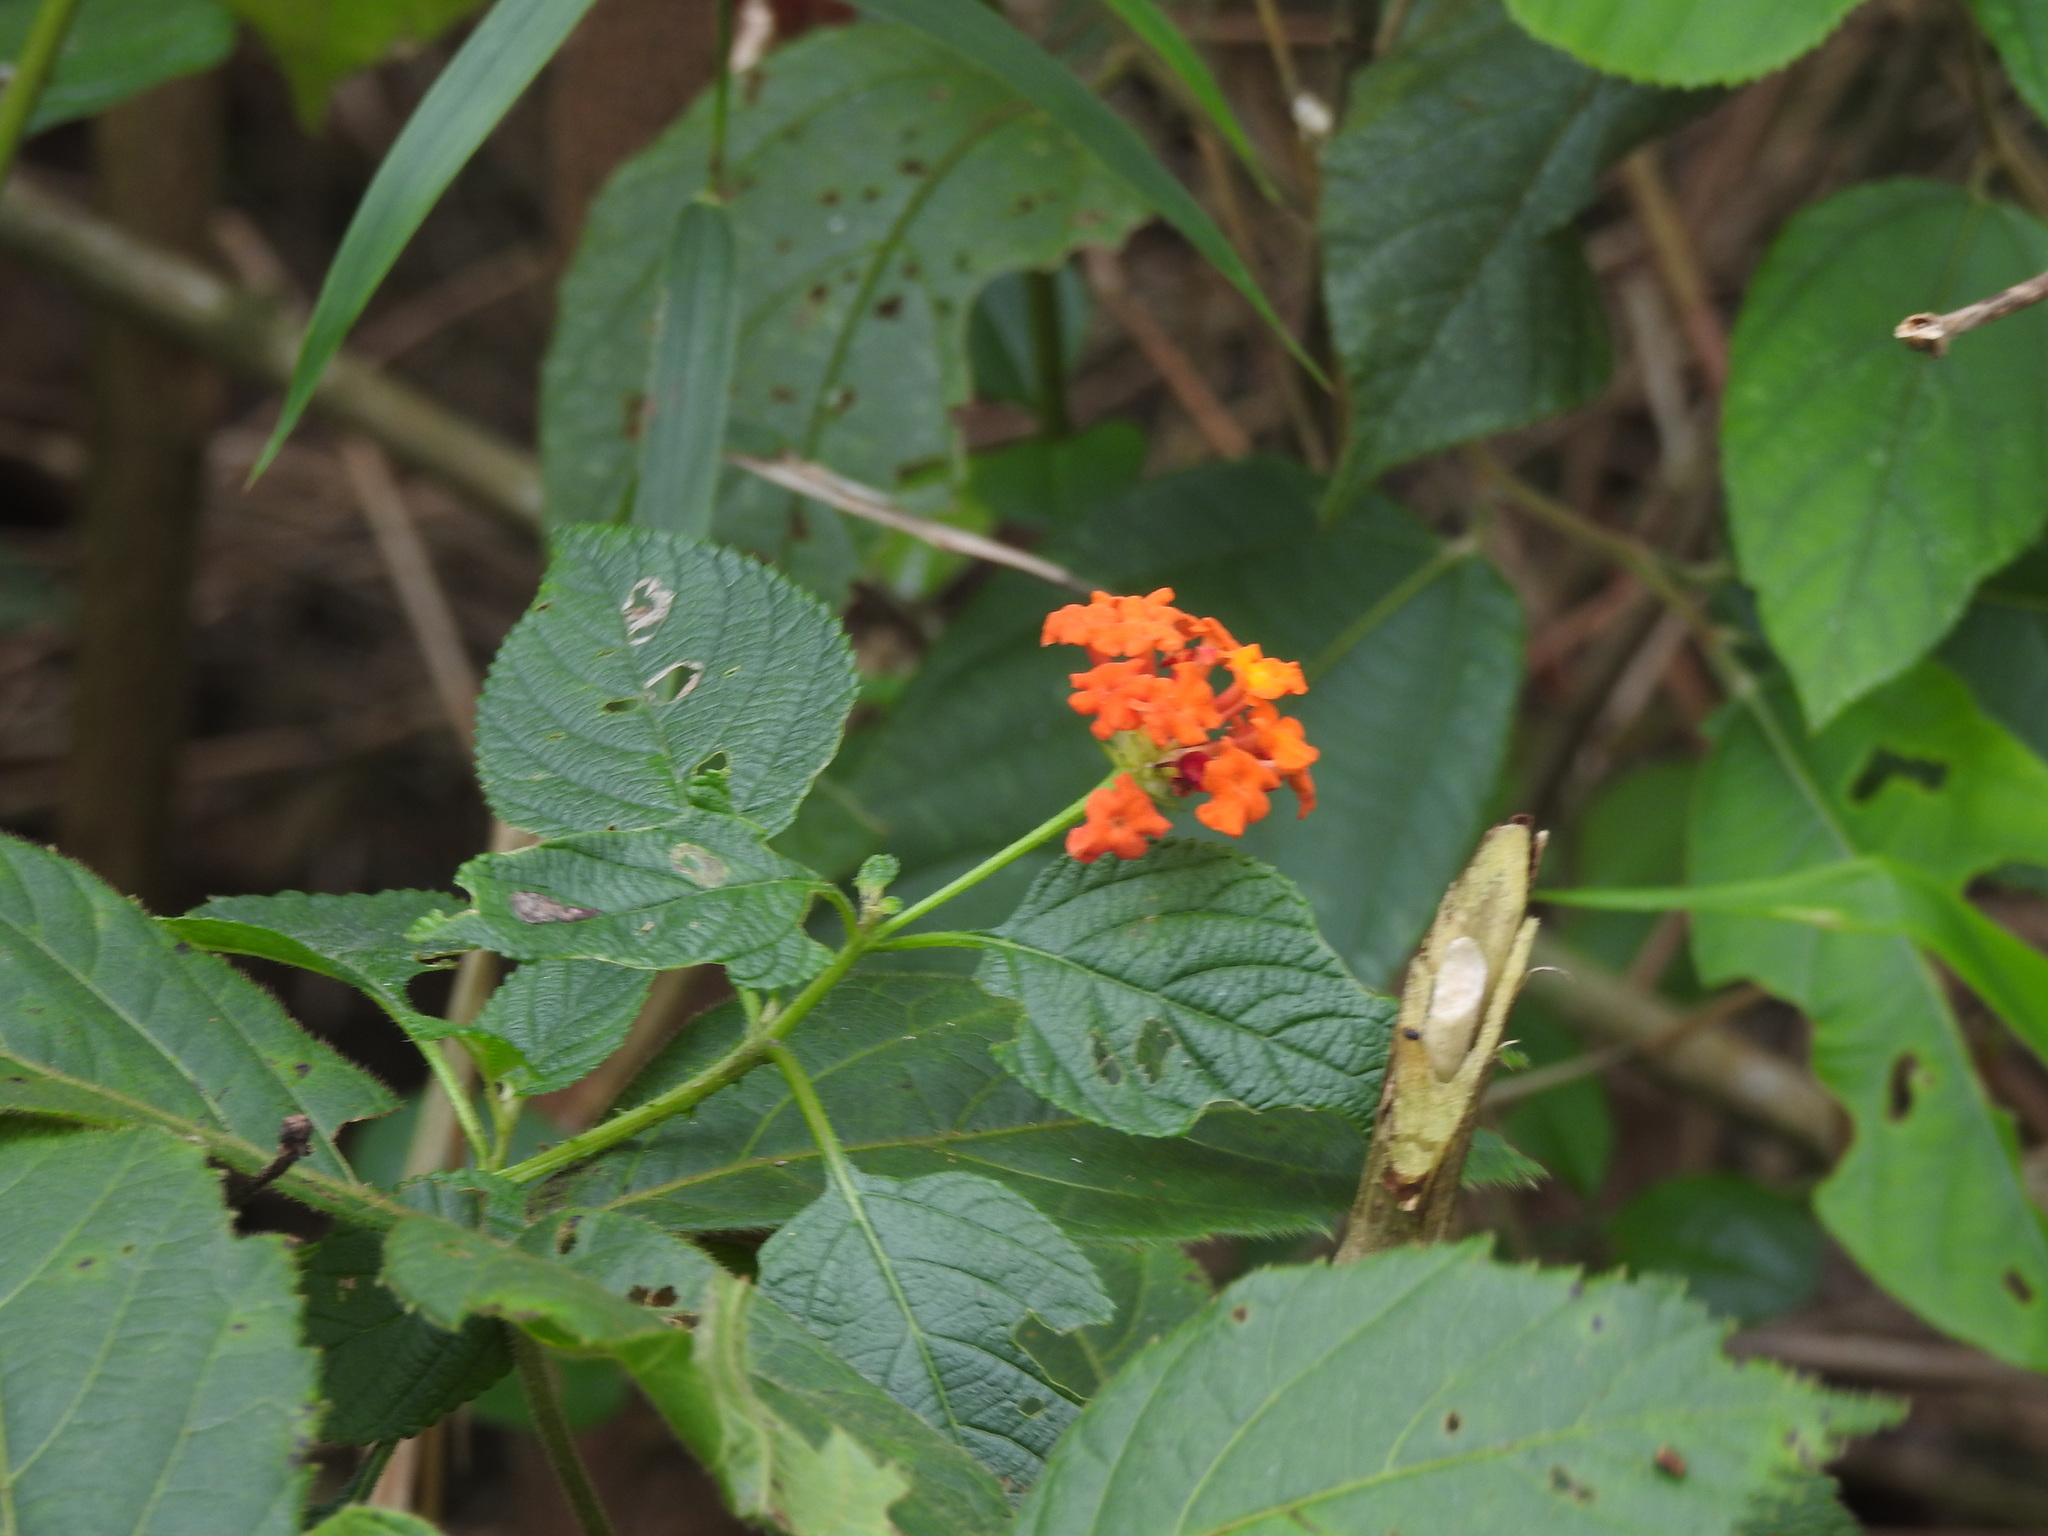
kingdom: Plantae
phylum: Tracheophyta
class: Magnoliopsida
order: Lamiales
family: Verbenaceae
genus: Lantana
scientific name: Lantana camara
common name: Lantana
